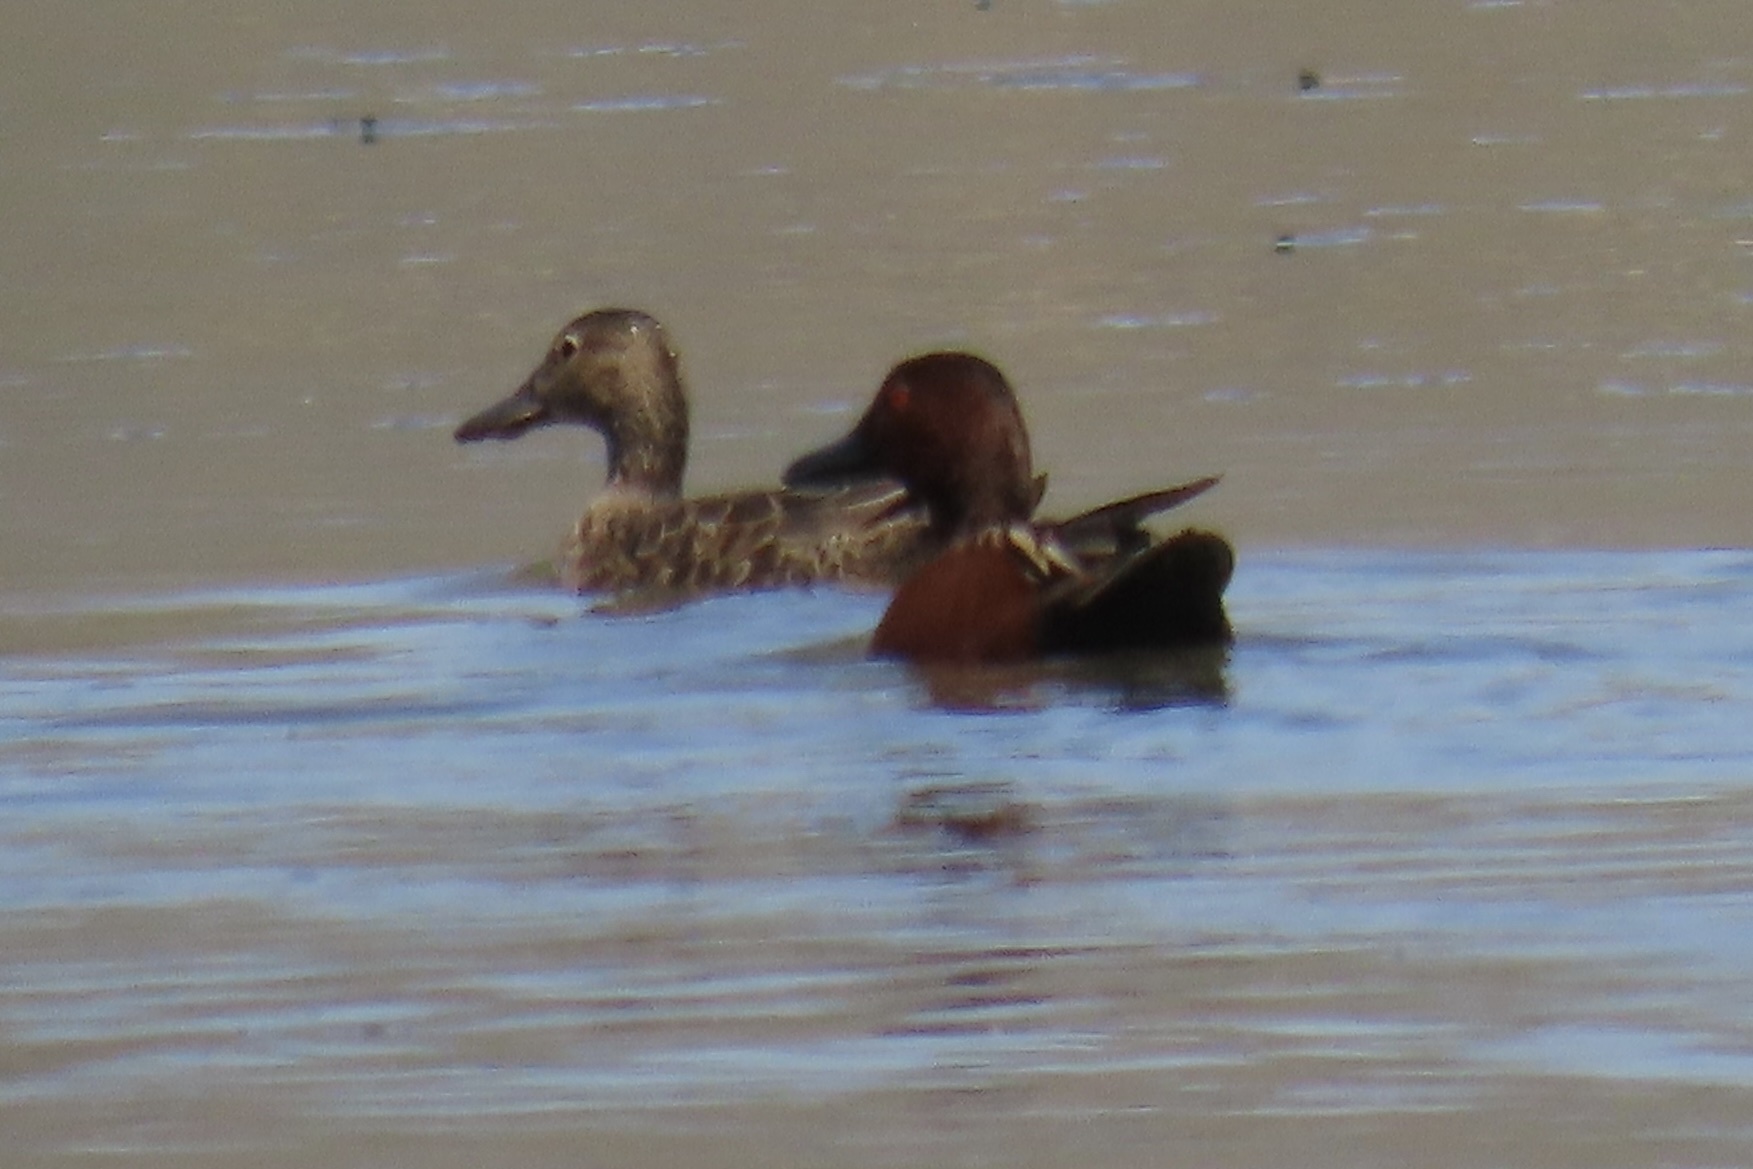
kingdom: Animalia
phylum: Chordata
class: Aves
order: Anseriformes
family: Anatidae
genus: Spatula
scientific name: Spatula cyanoptera
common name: Cinnamon teal
